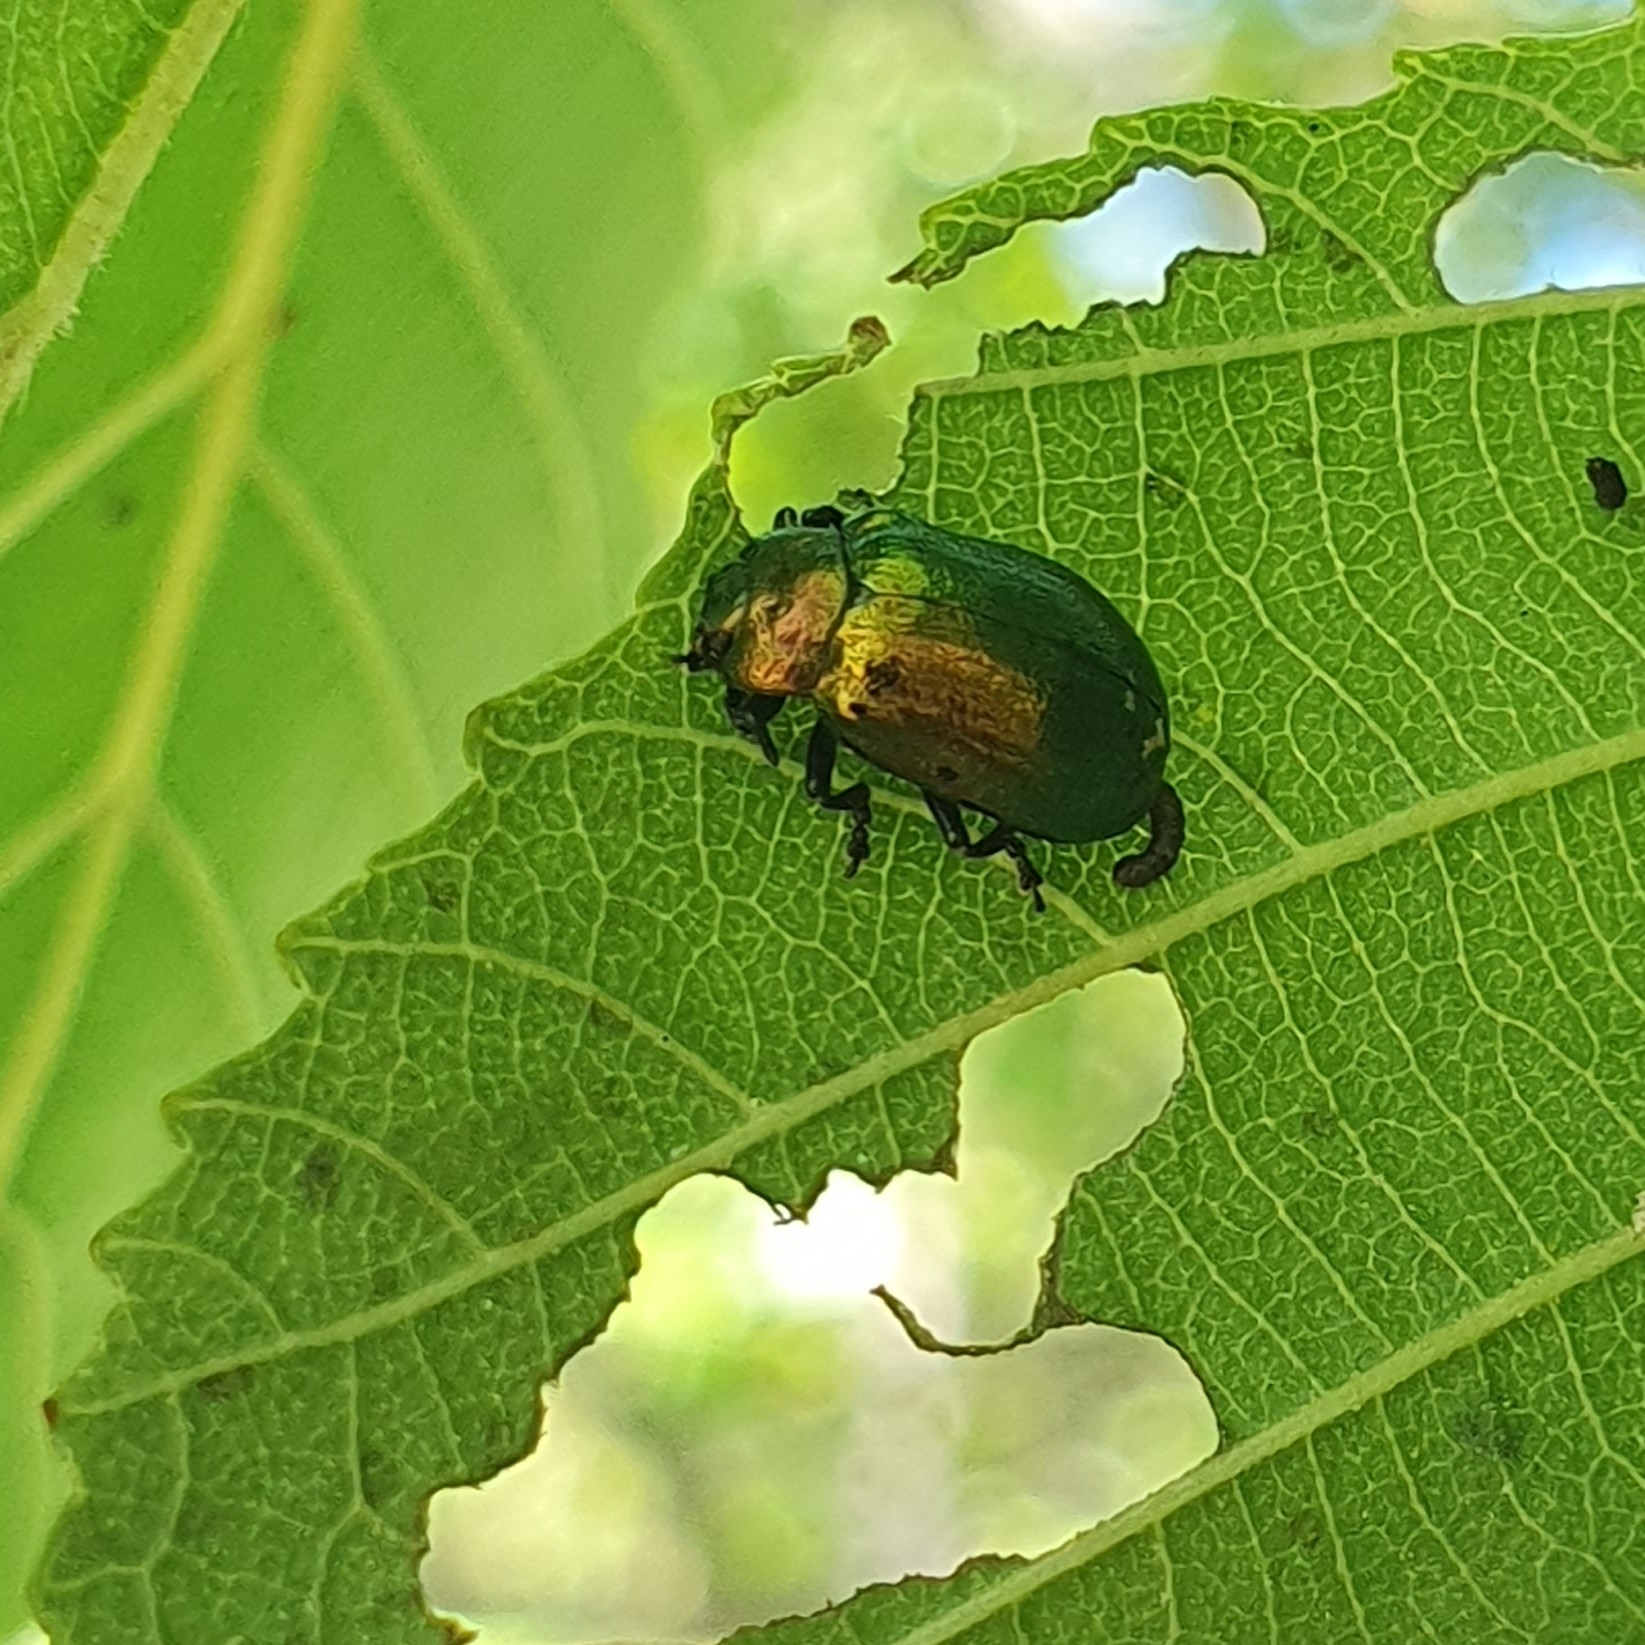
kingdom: Animalia
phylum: Arthropoda
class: Insecta
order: Coleoptera
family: Chrysomelidae
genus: Plagiosterna
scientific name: Plagiosterna aenea
